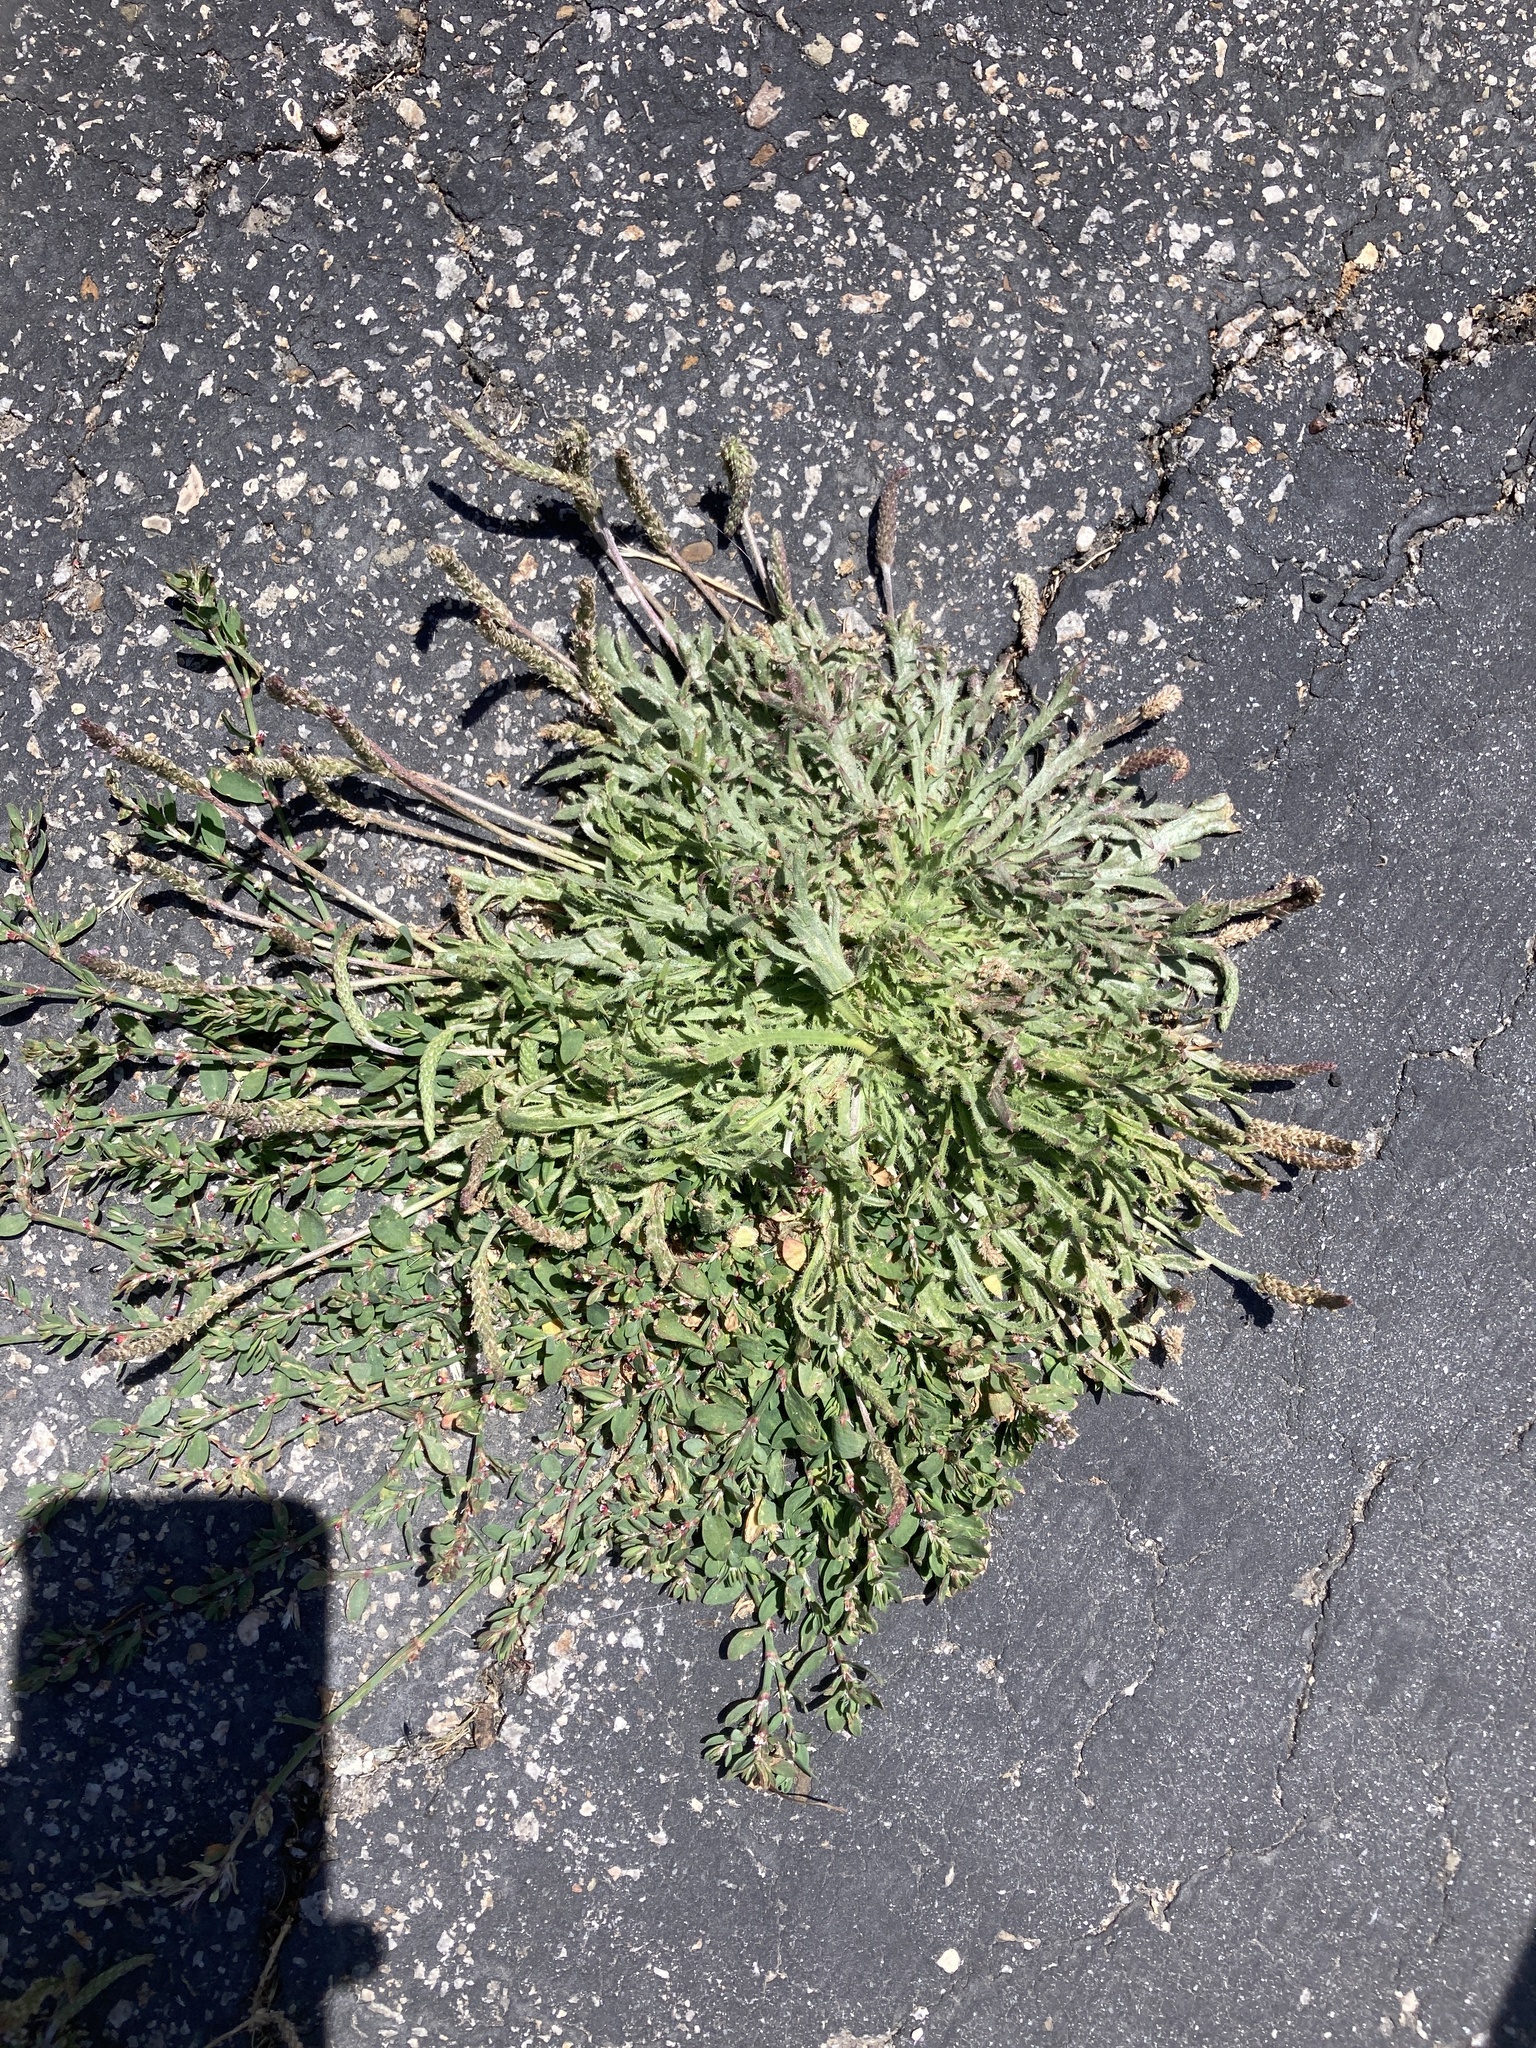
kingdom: Plantae
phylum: Tracheophyta
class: Magnoliopsida
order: Lamiales
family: Plantaginaceae
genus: Plantago
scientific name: Plantago coronopus
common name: Buck's-horn plantain
